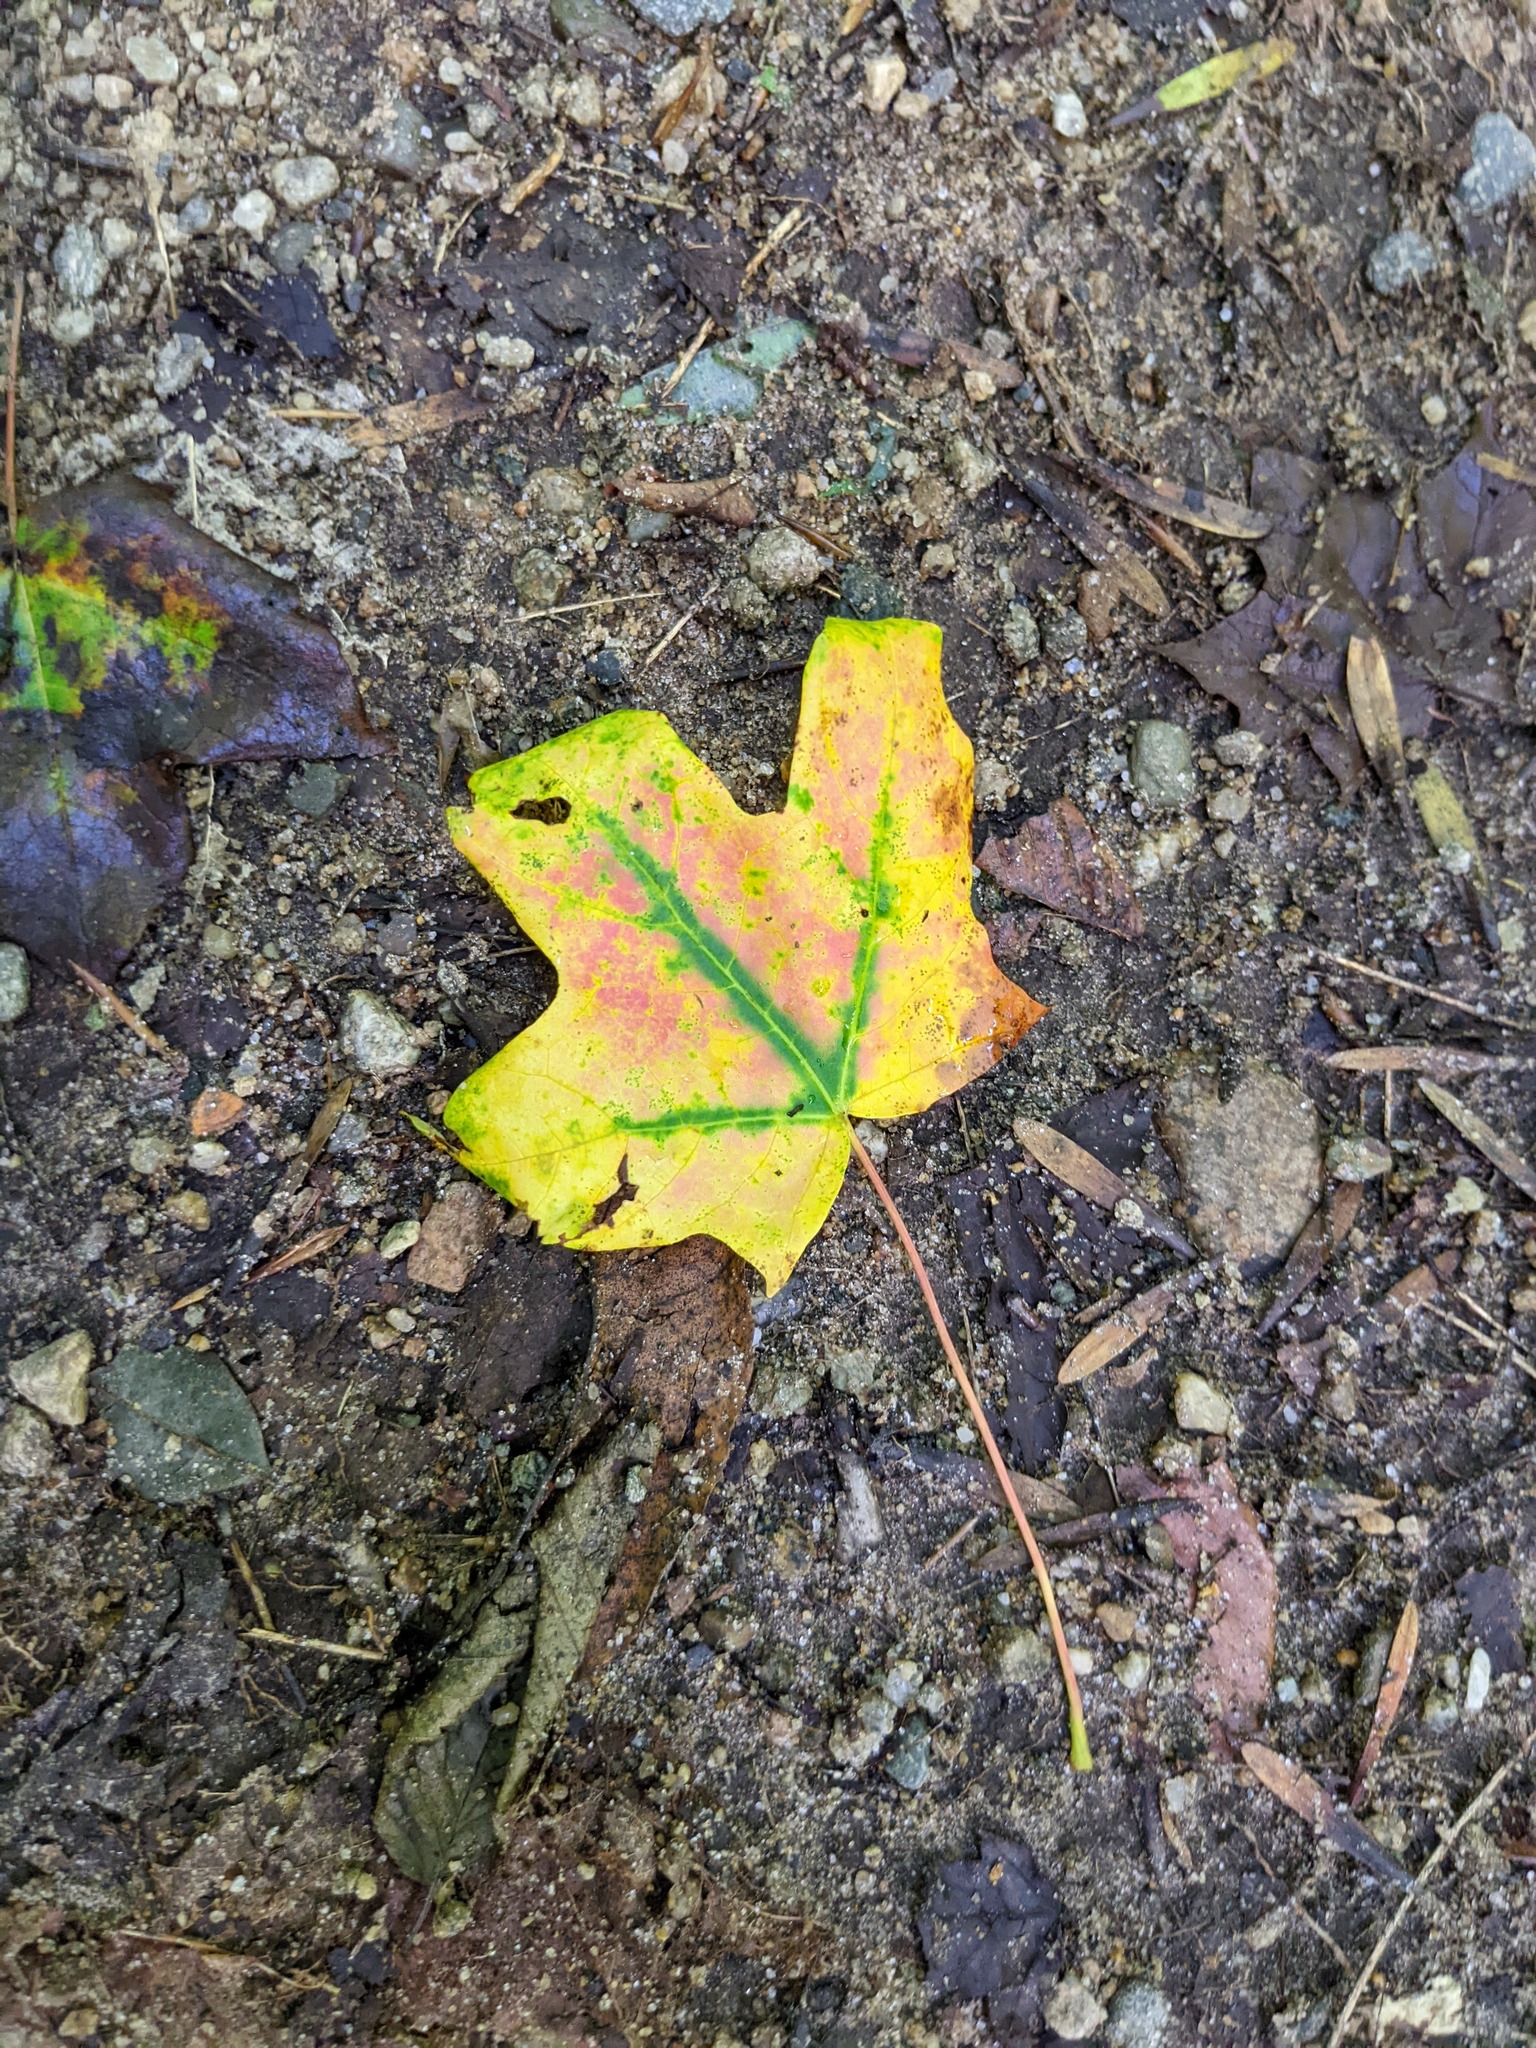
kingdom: Plantae
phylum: Tracheophyta
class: Magnoliopsida
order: Sapindales
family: Sapindaceae
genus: Acer
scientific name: Acer saccharum
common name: Sugar maple
